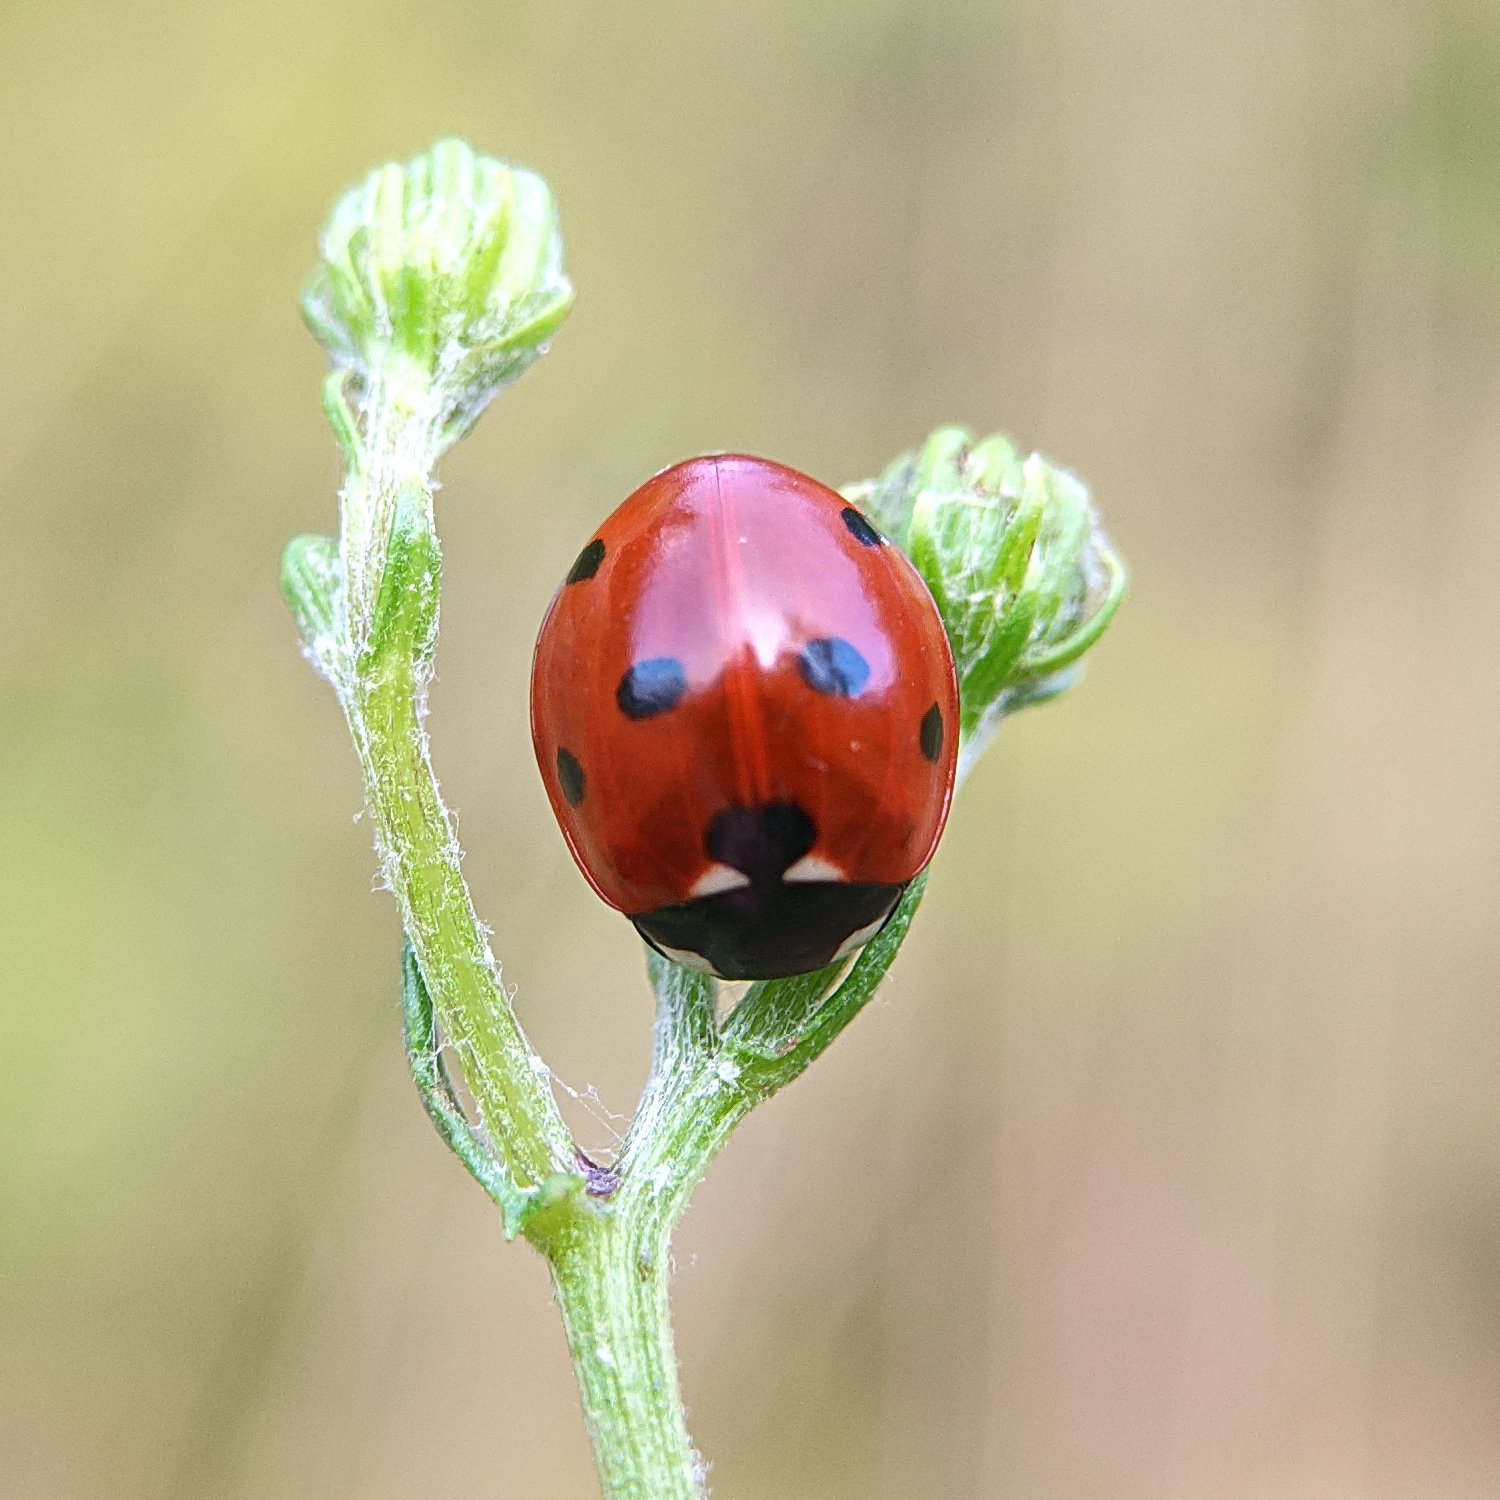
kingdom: Animalia
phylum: Arthropoda
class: Insecta
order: Coleoptera
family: Coccinellidae
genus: Coccinella
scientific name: Coccinella septempunctata
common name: Sevenspotted lady beetle
